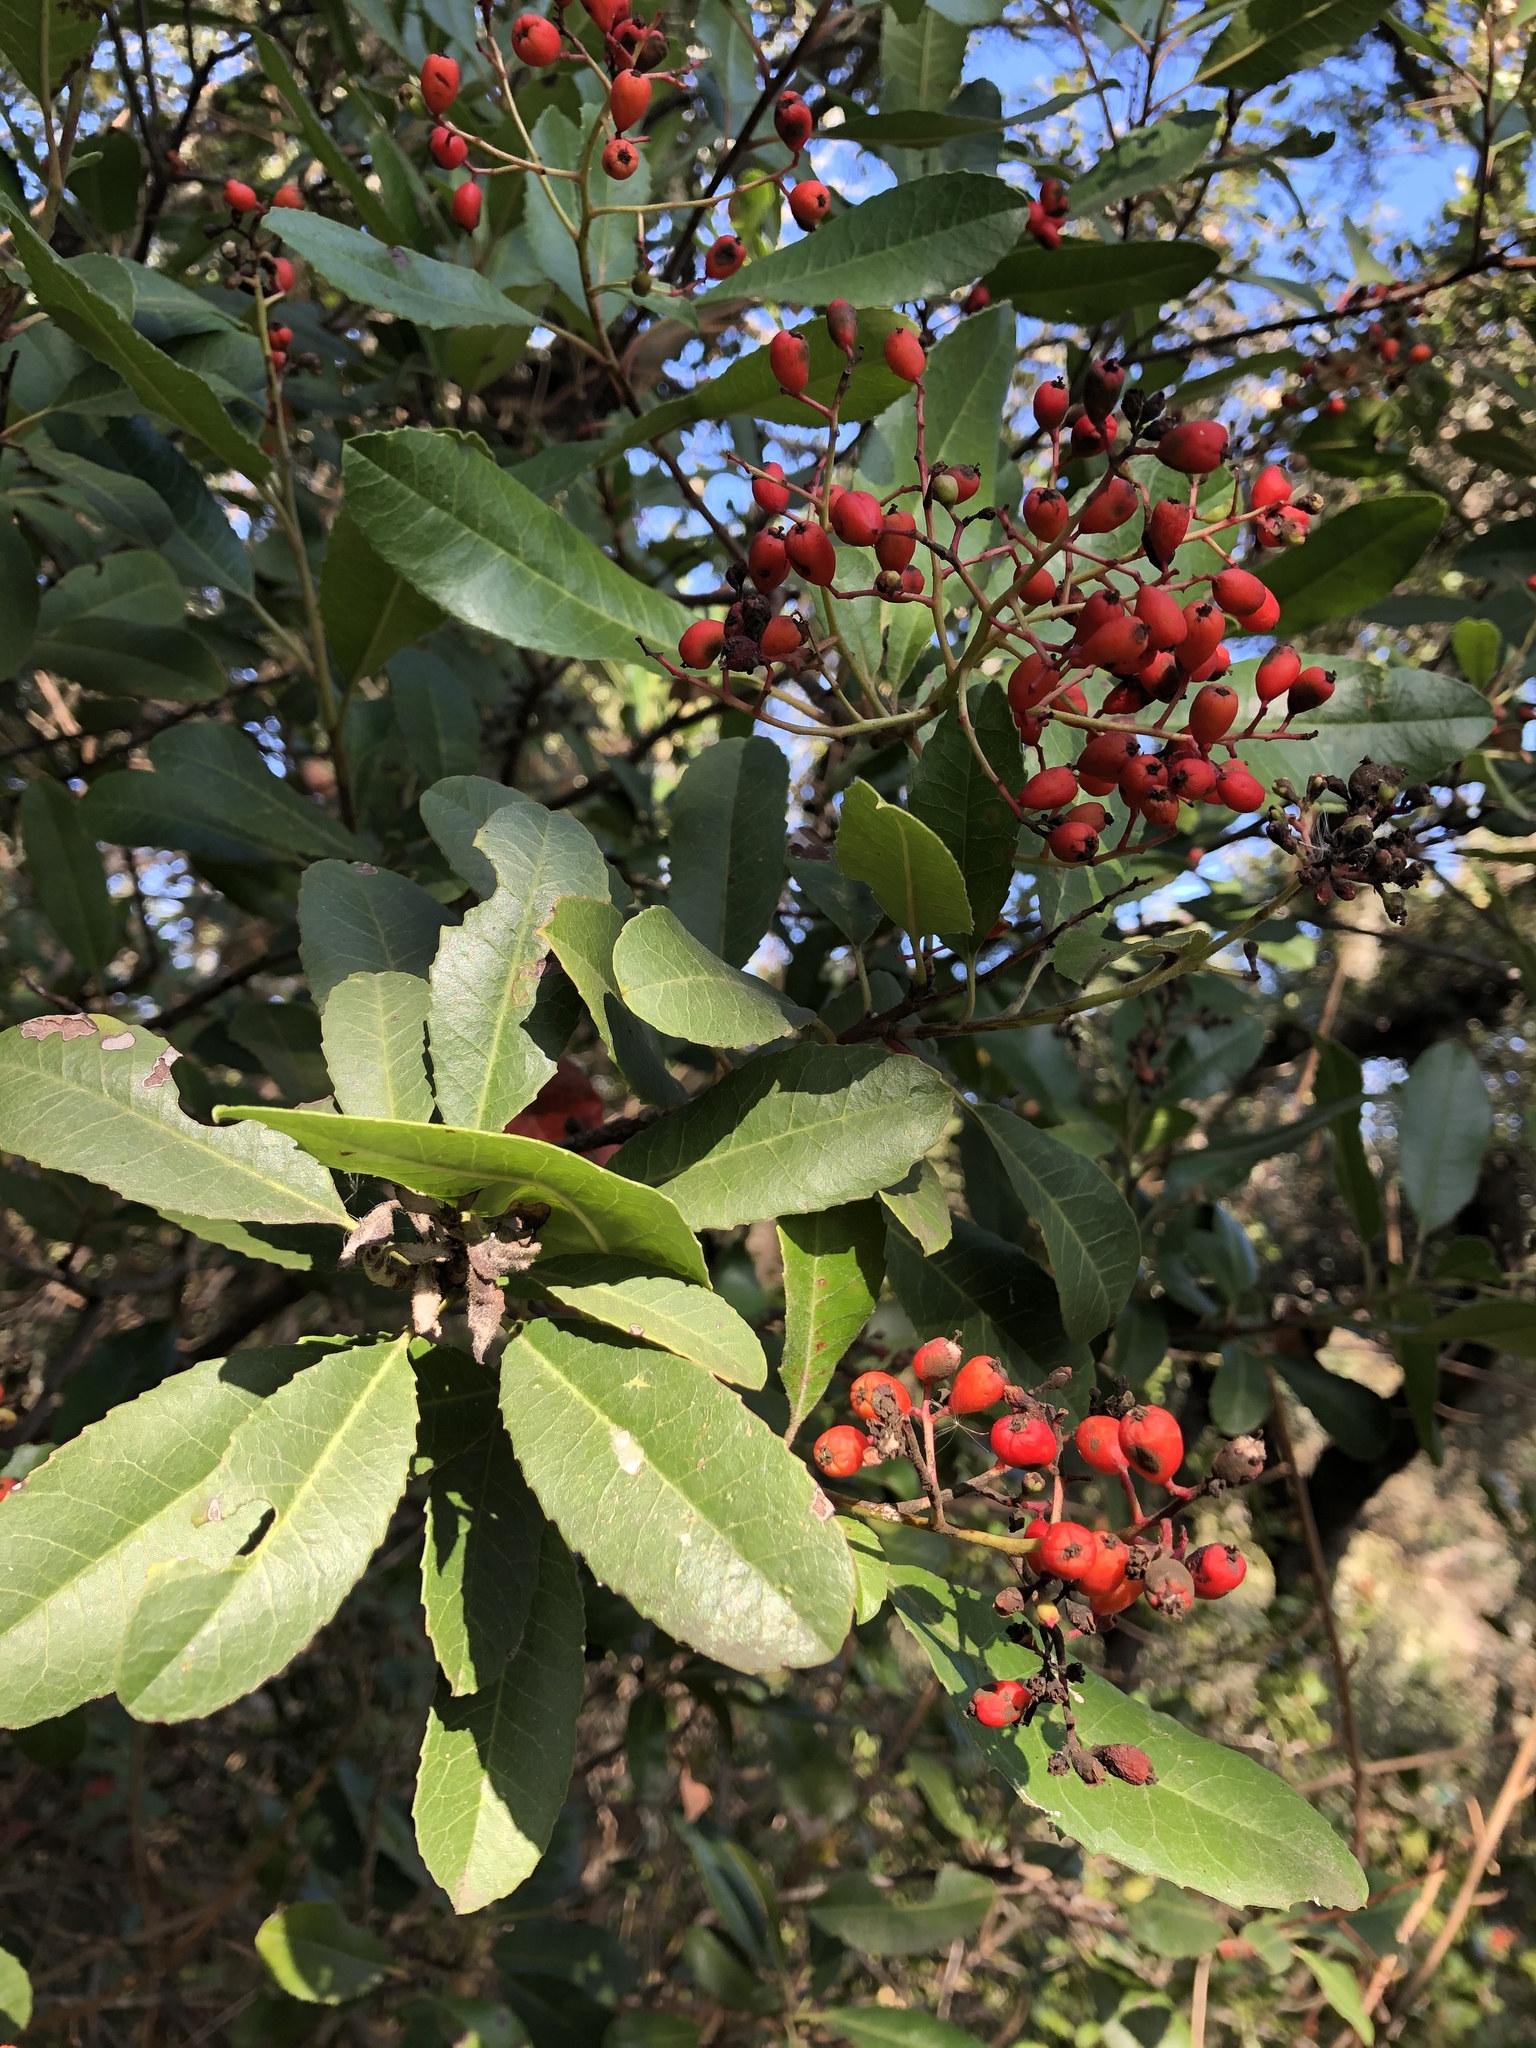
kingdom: Plantae
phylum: Tracheophyta
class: Magnoliopsida
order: Rosales
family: Rosaceae
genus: Heteromeles
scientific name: Heteromeles arbutifolia
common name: California-holly
